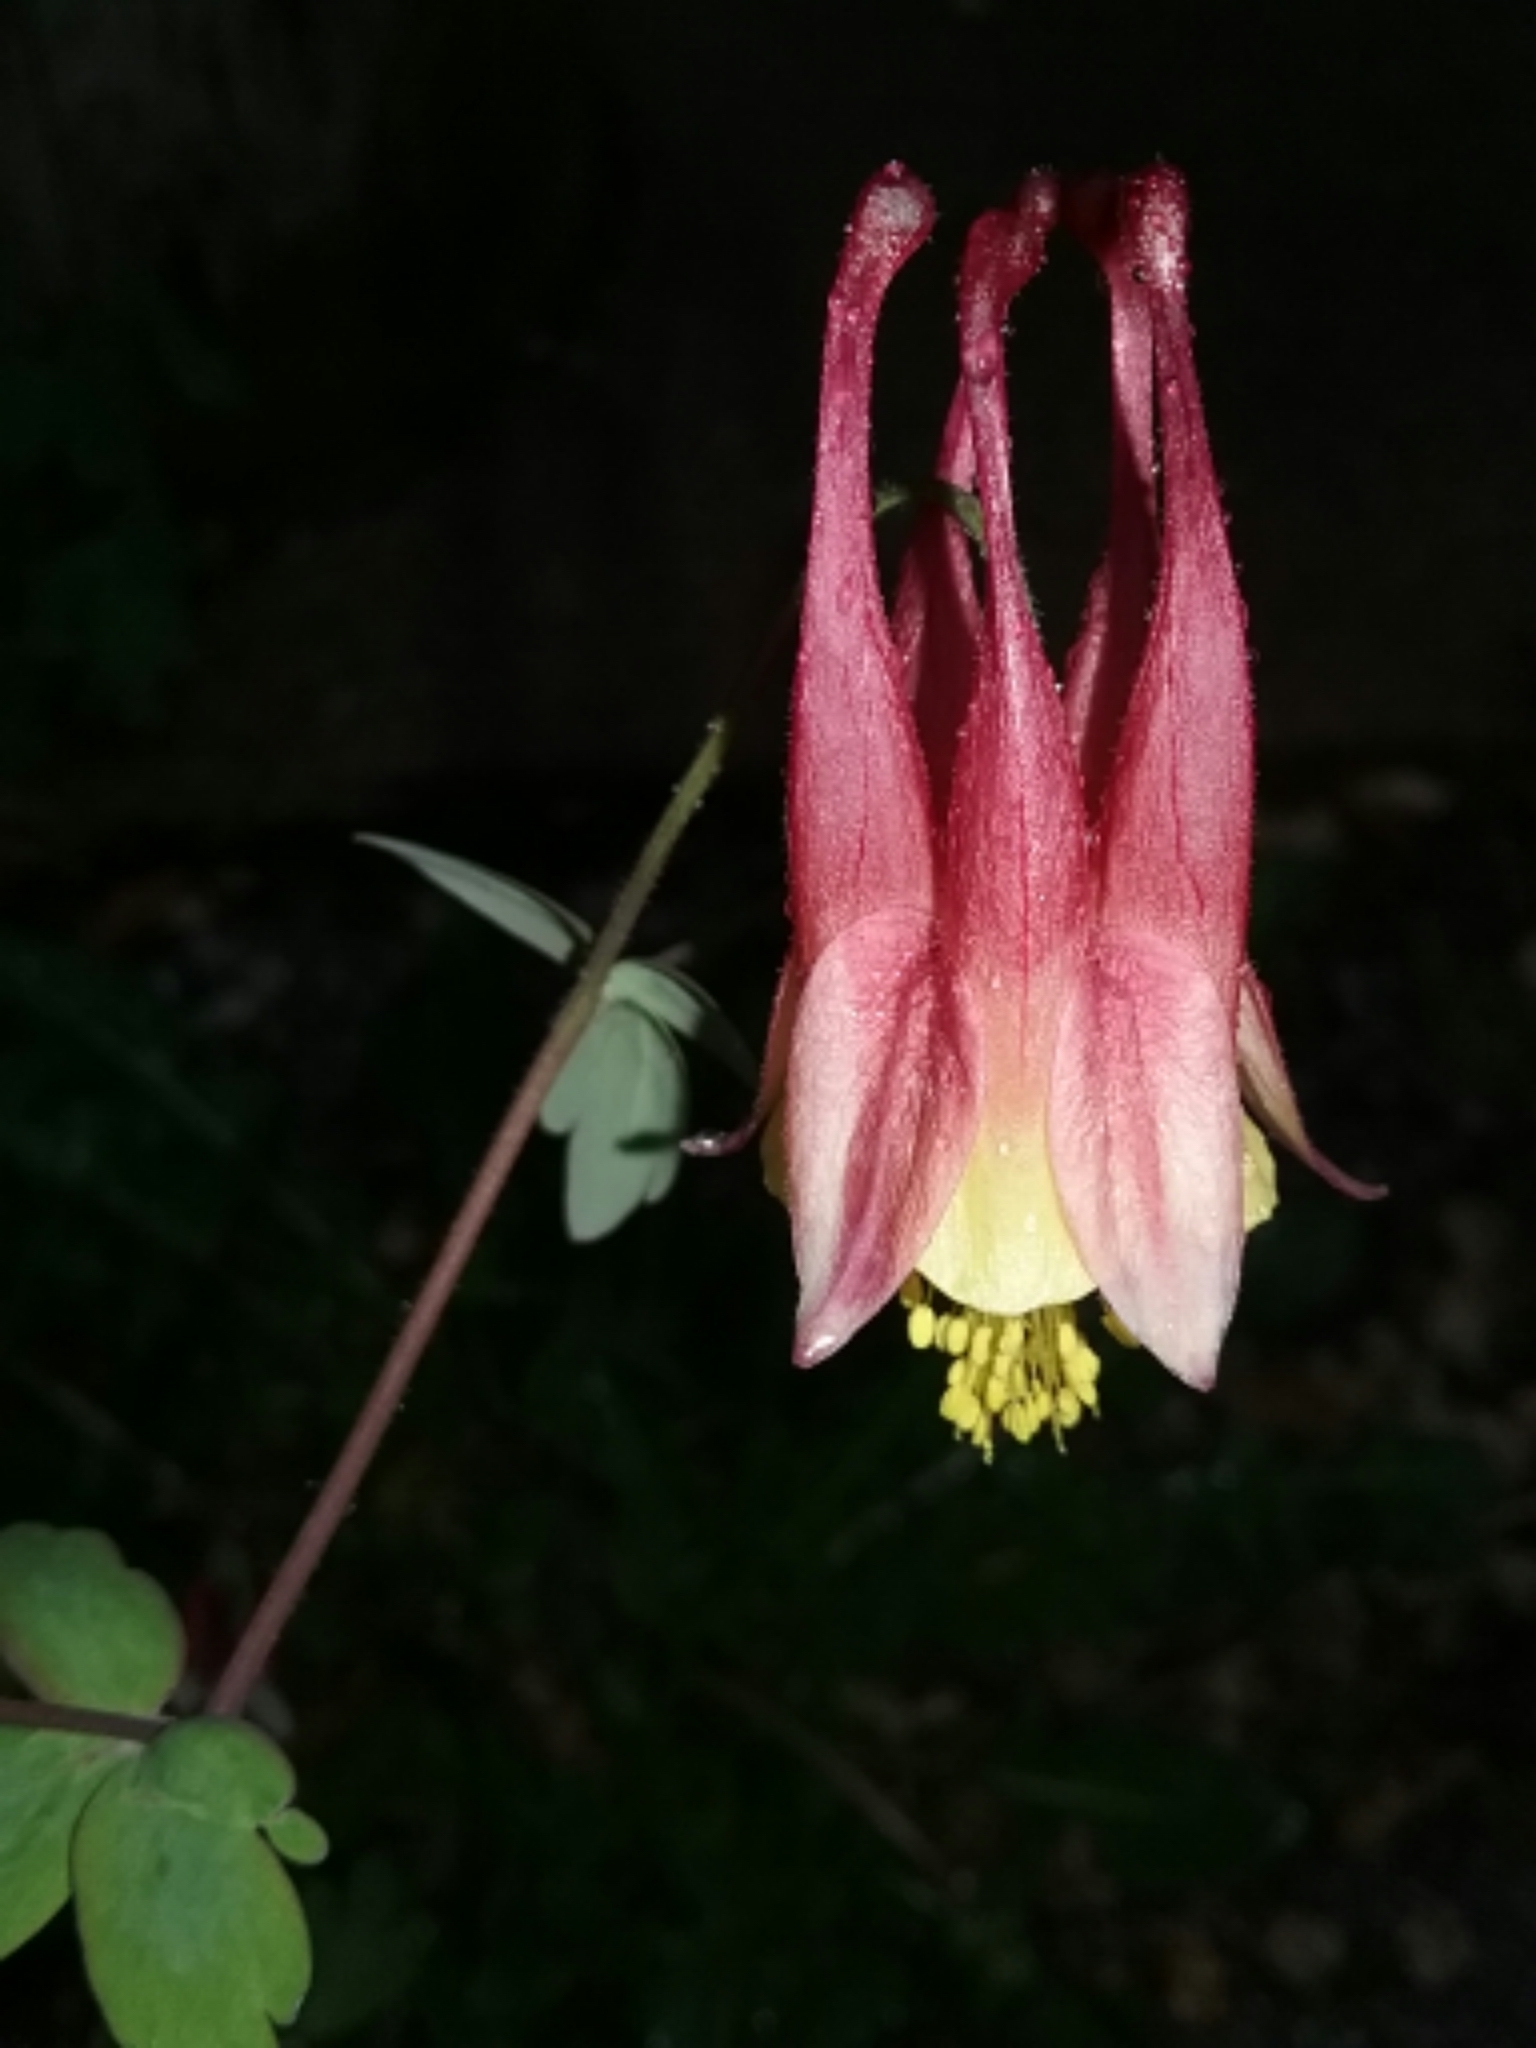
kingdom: Plantae
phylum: Tracheophyta
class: Magnoliopsida
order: Ranunculales
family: Ranunculaceae
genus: Aquilegia
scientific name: Aquilegia canadensis
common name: American columbine
